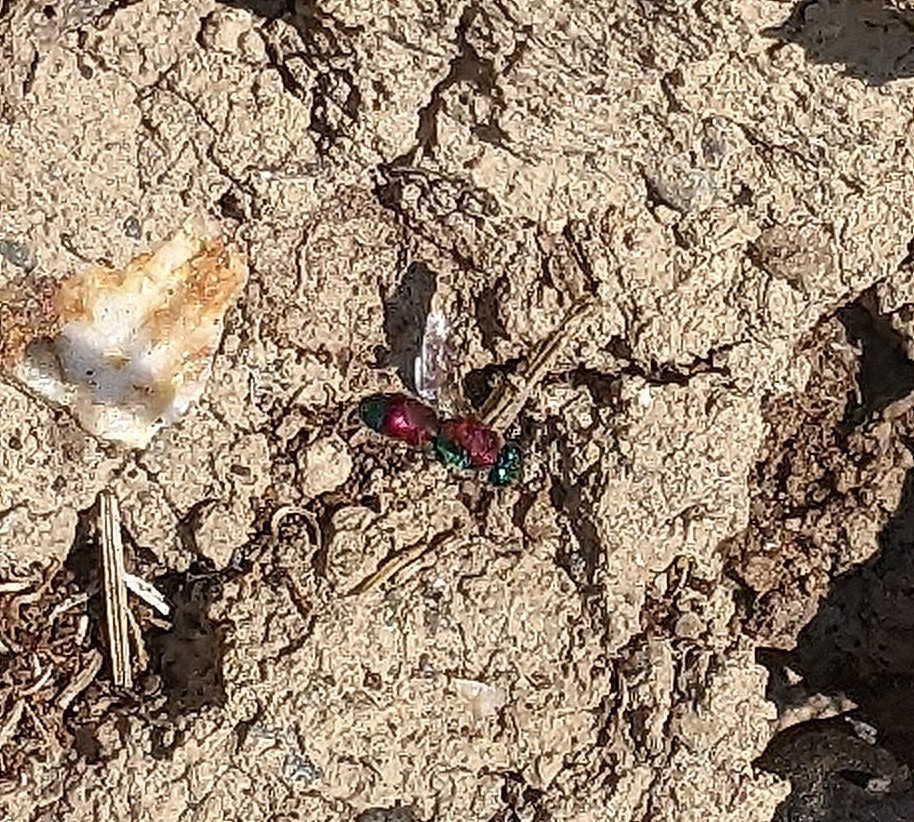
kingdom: Animalia
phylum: Arthropoda
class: Insecta
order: Hymenoptera
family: Chrysididae
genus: Chrysis
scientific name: Chrysis viridula
